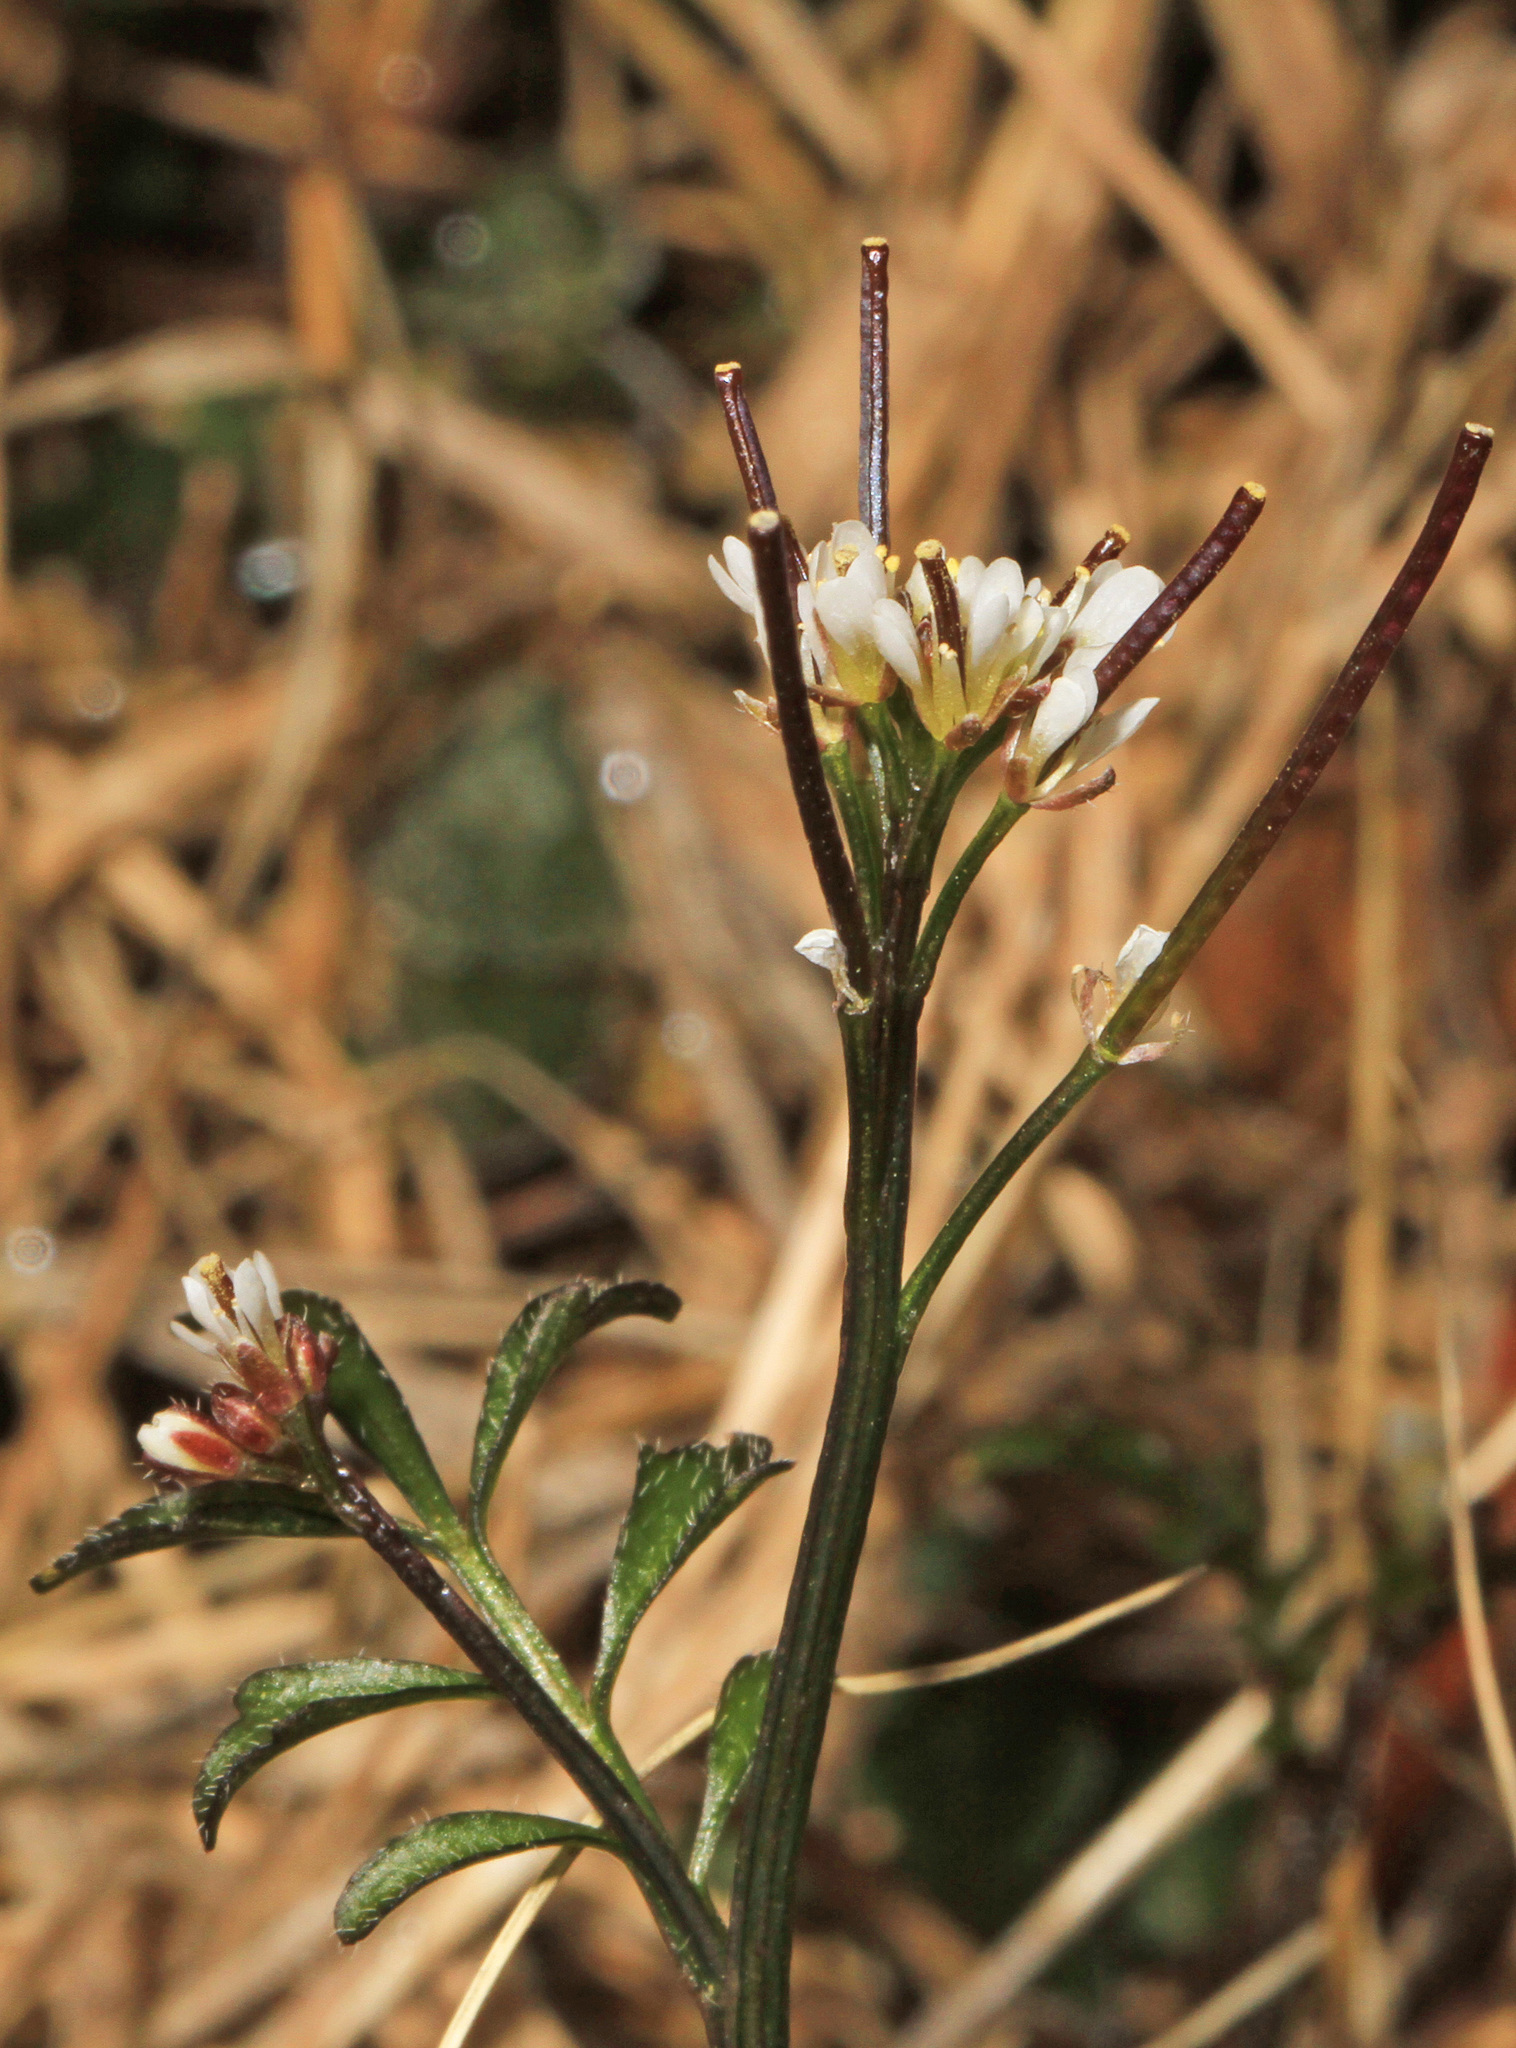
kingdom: Plantae
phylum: Tracheophyta
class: Magnoliopsida
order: Brassicales
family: Brassicaceae
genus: Cardamine
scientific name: Cardamine hirsuta
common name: Hairy bittercress
